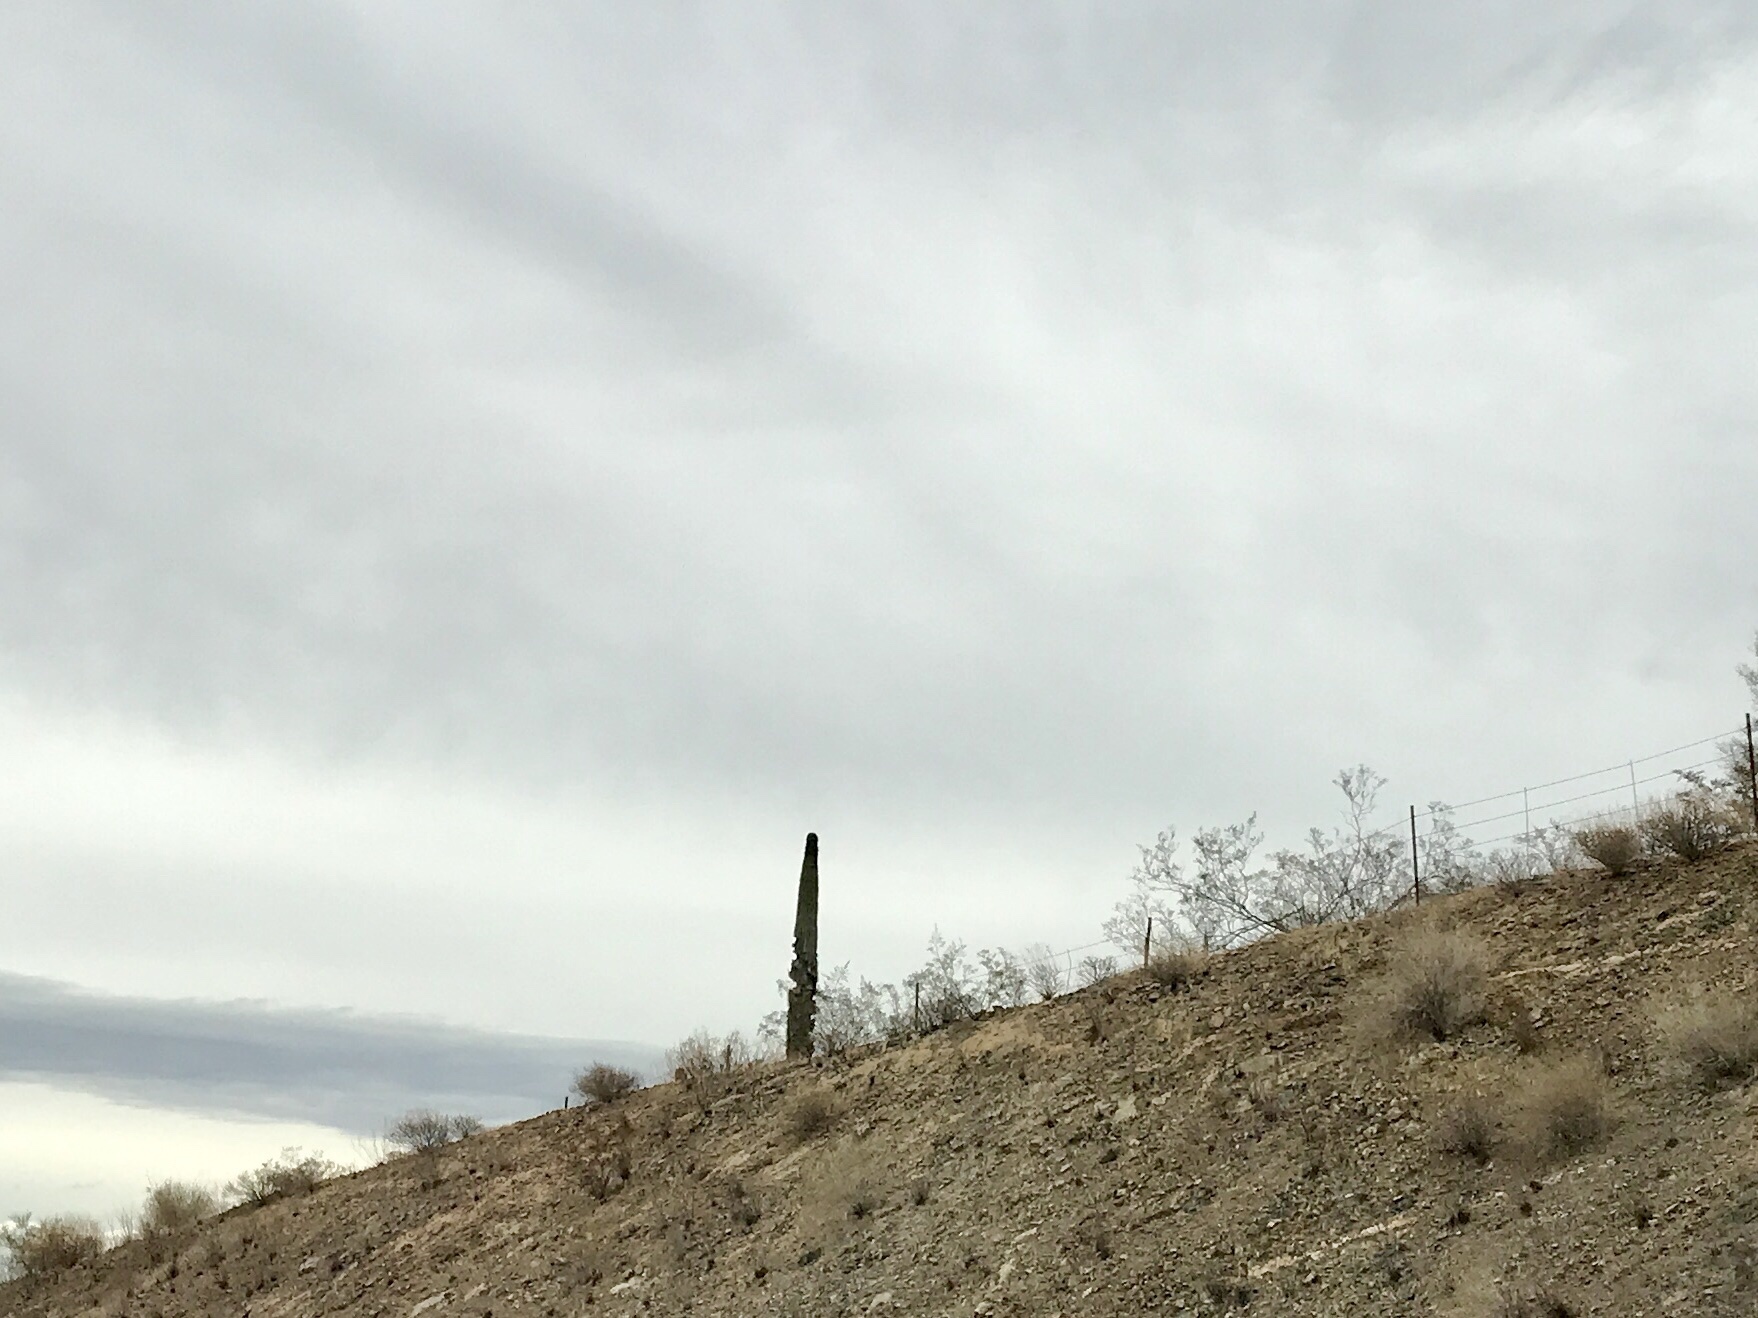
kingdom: Plantae
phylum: Tracheophyta
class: Magnoliopsida
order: Caryophyllales
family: Cactaceae
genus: Carnegiea
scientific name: Carnegiea gigantea
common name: Saguaro
